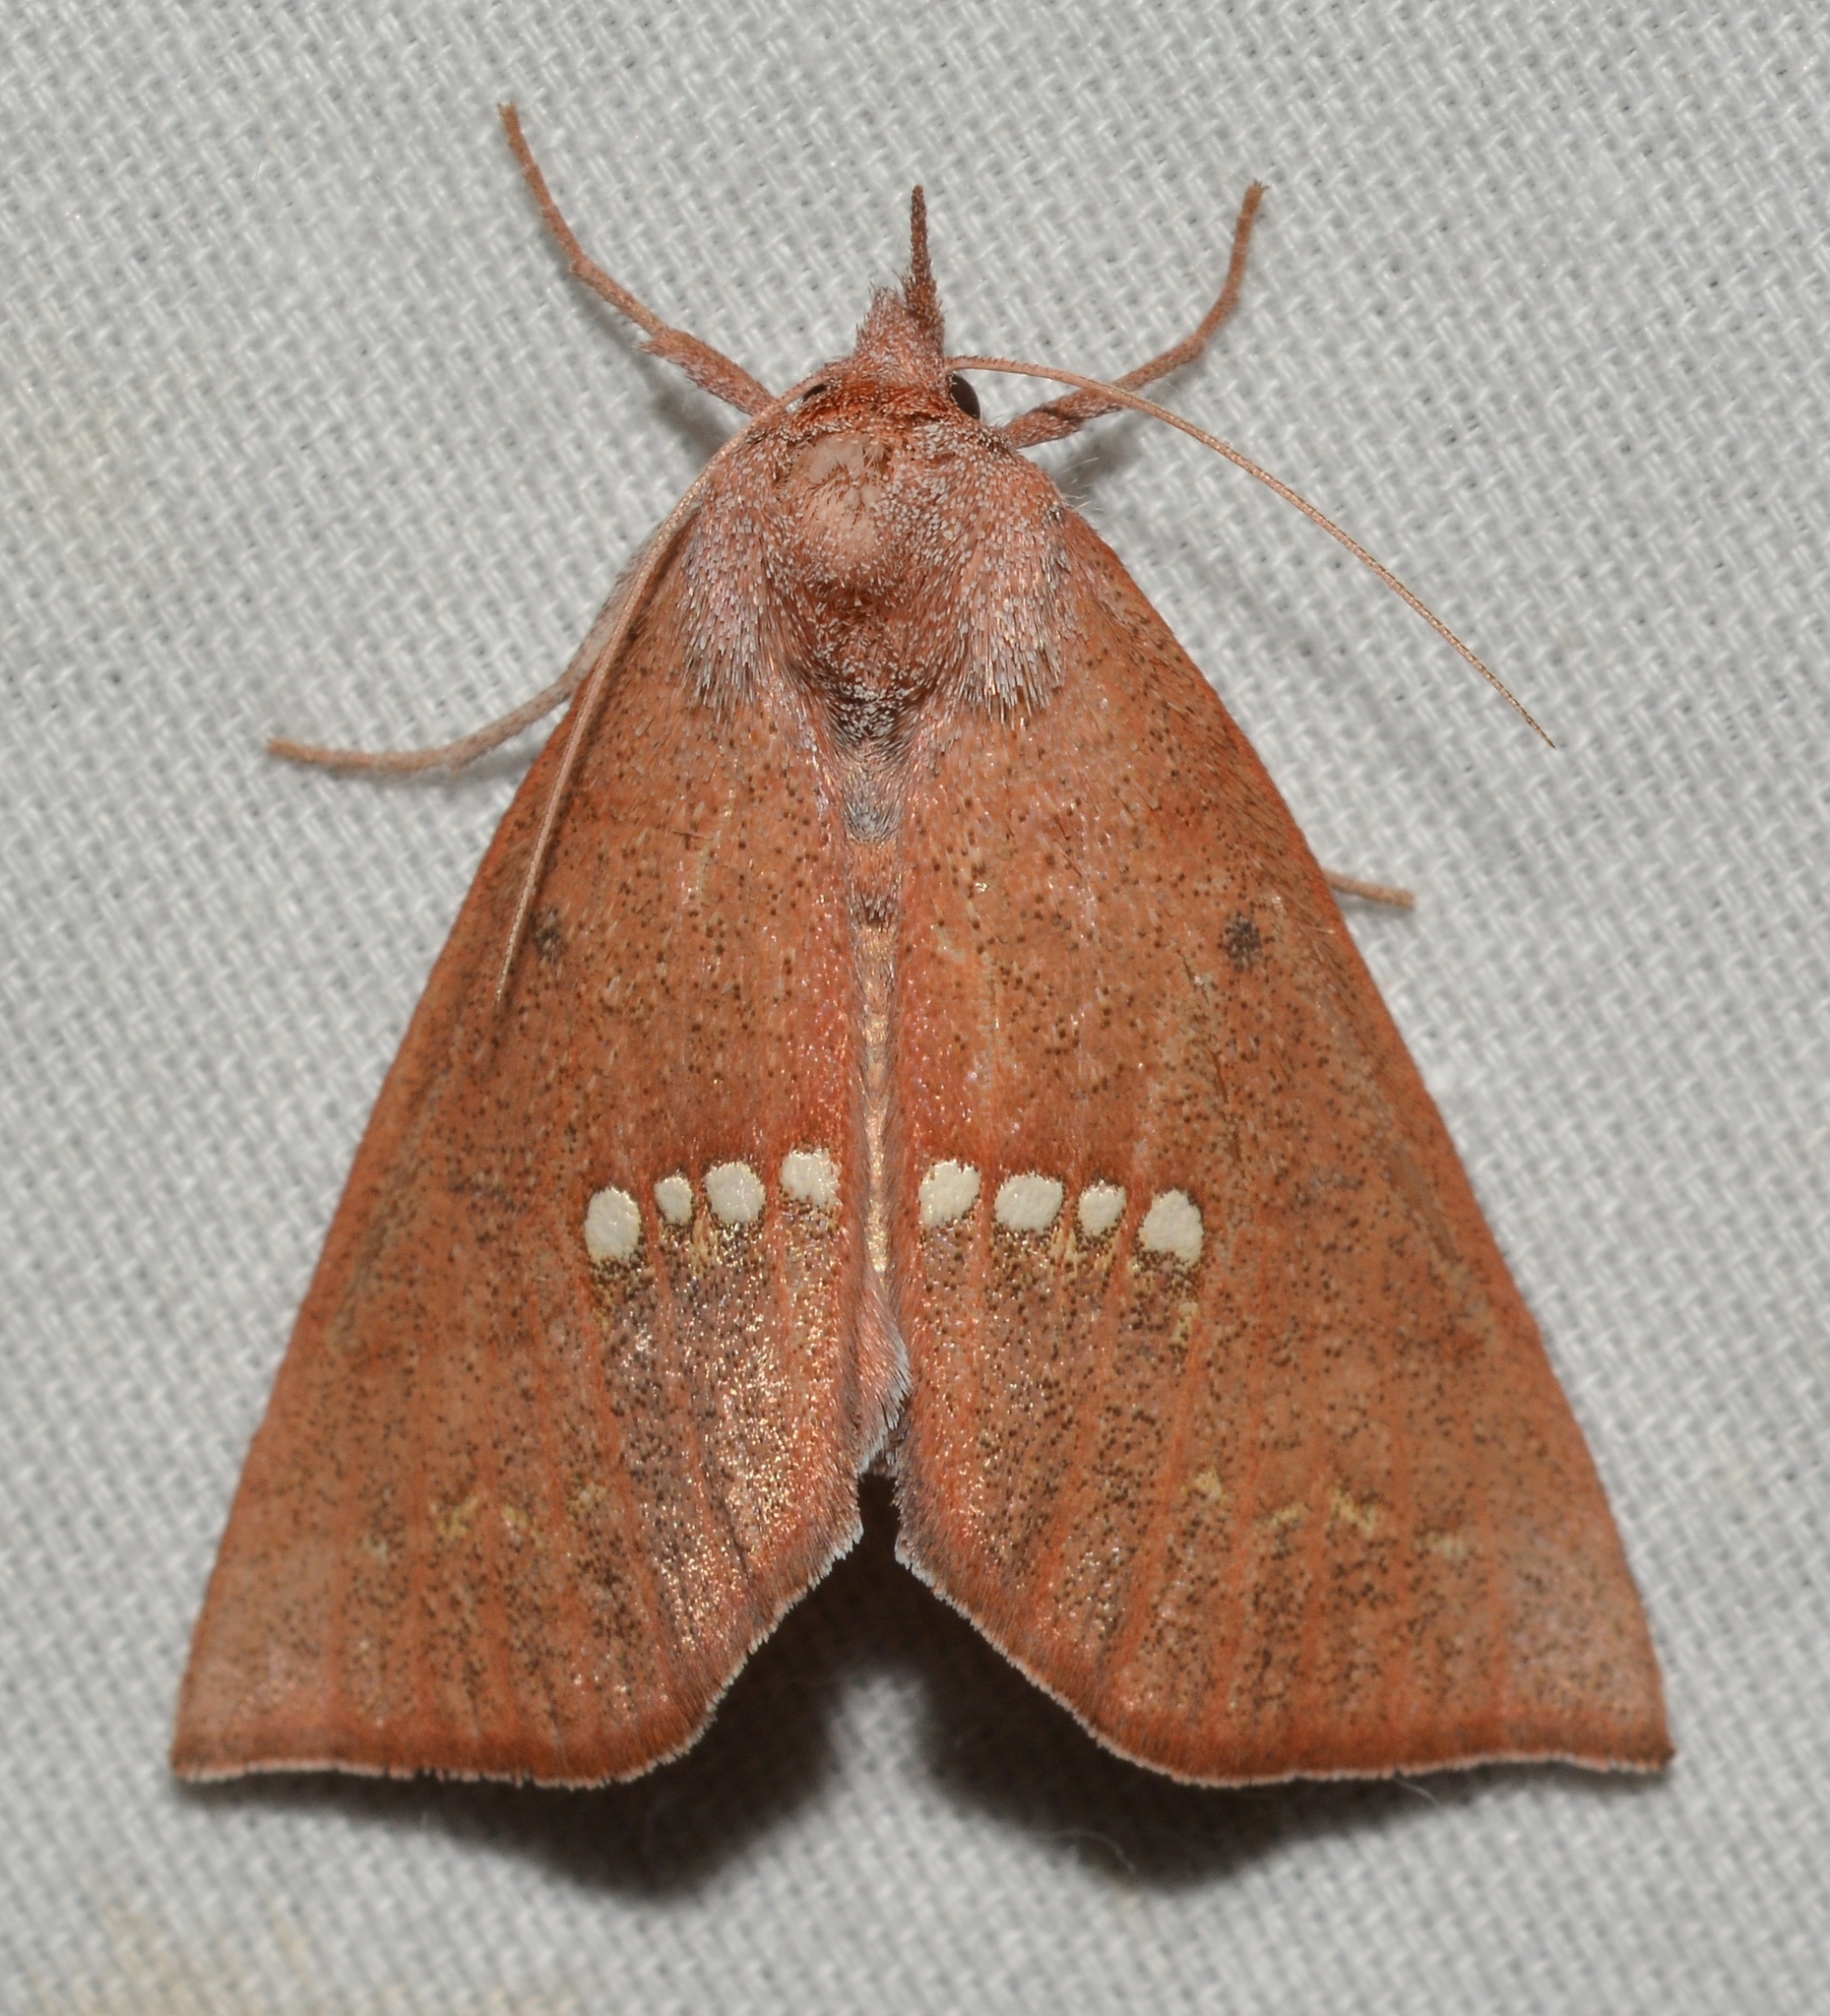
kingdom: Animalia
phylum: Arthropoda
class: Insecta
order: Lepidoptera
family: Erebidae
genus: Hypsoropha
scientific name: Hypsoropha monilis
